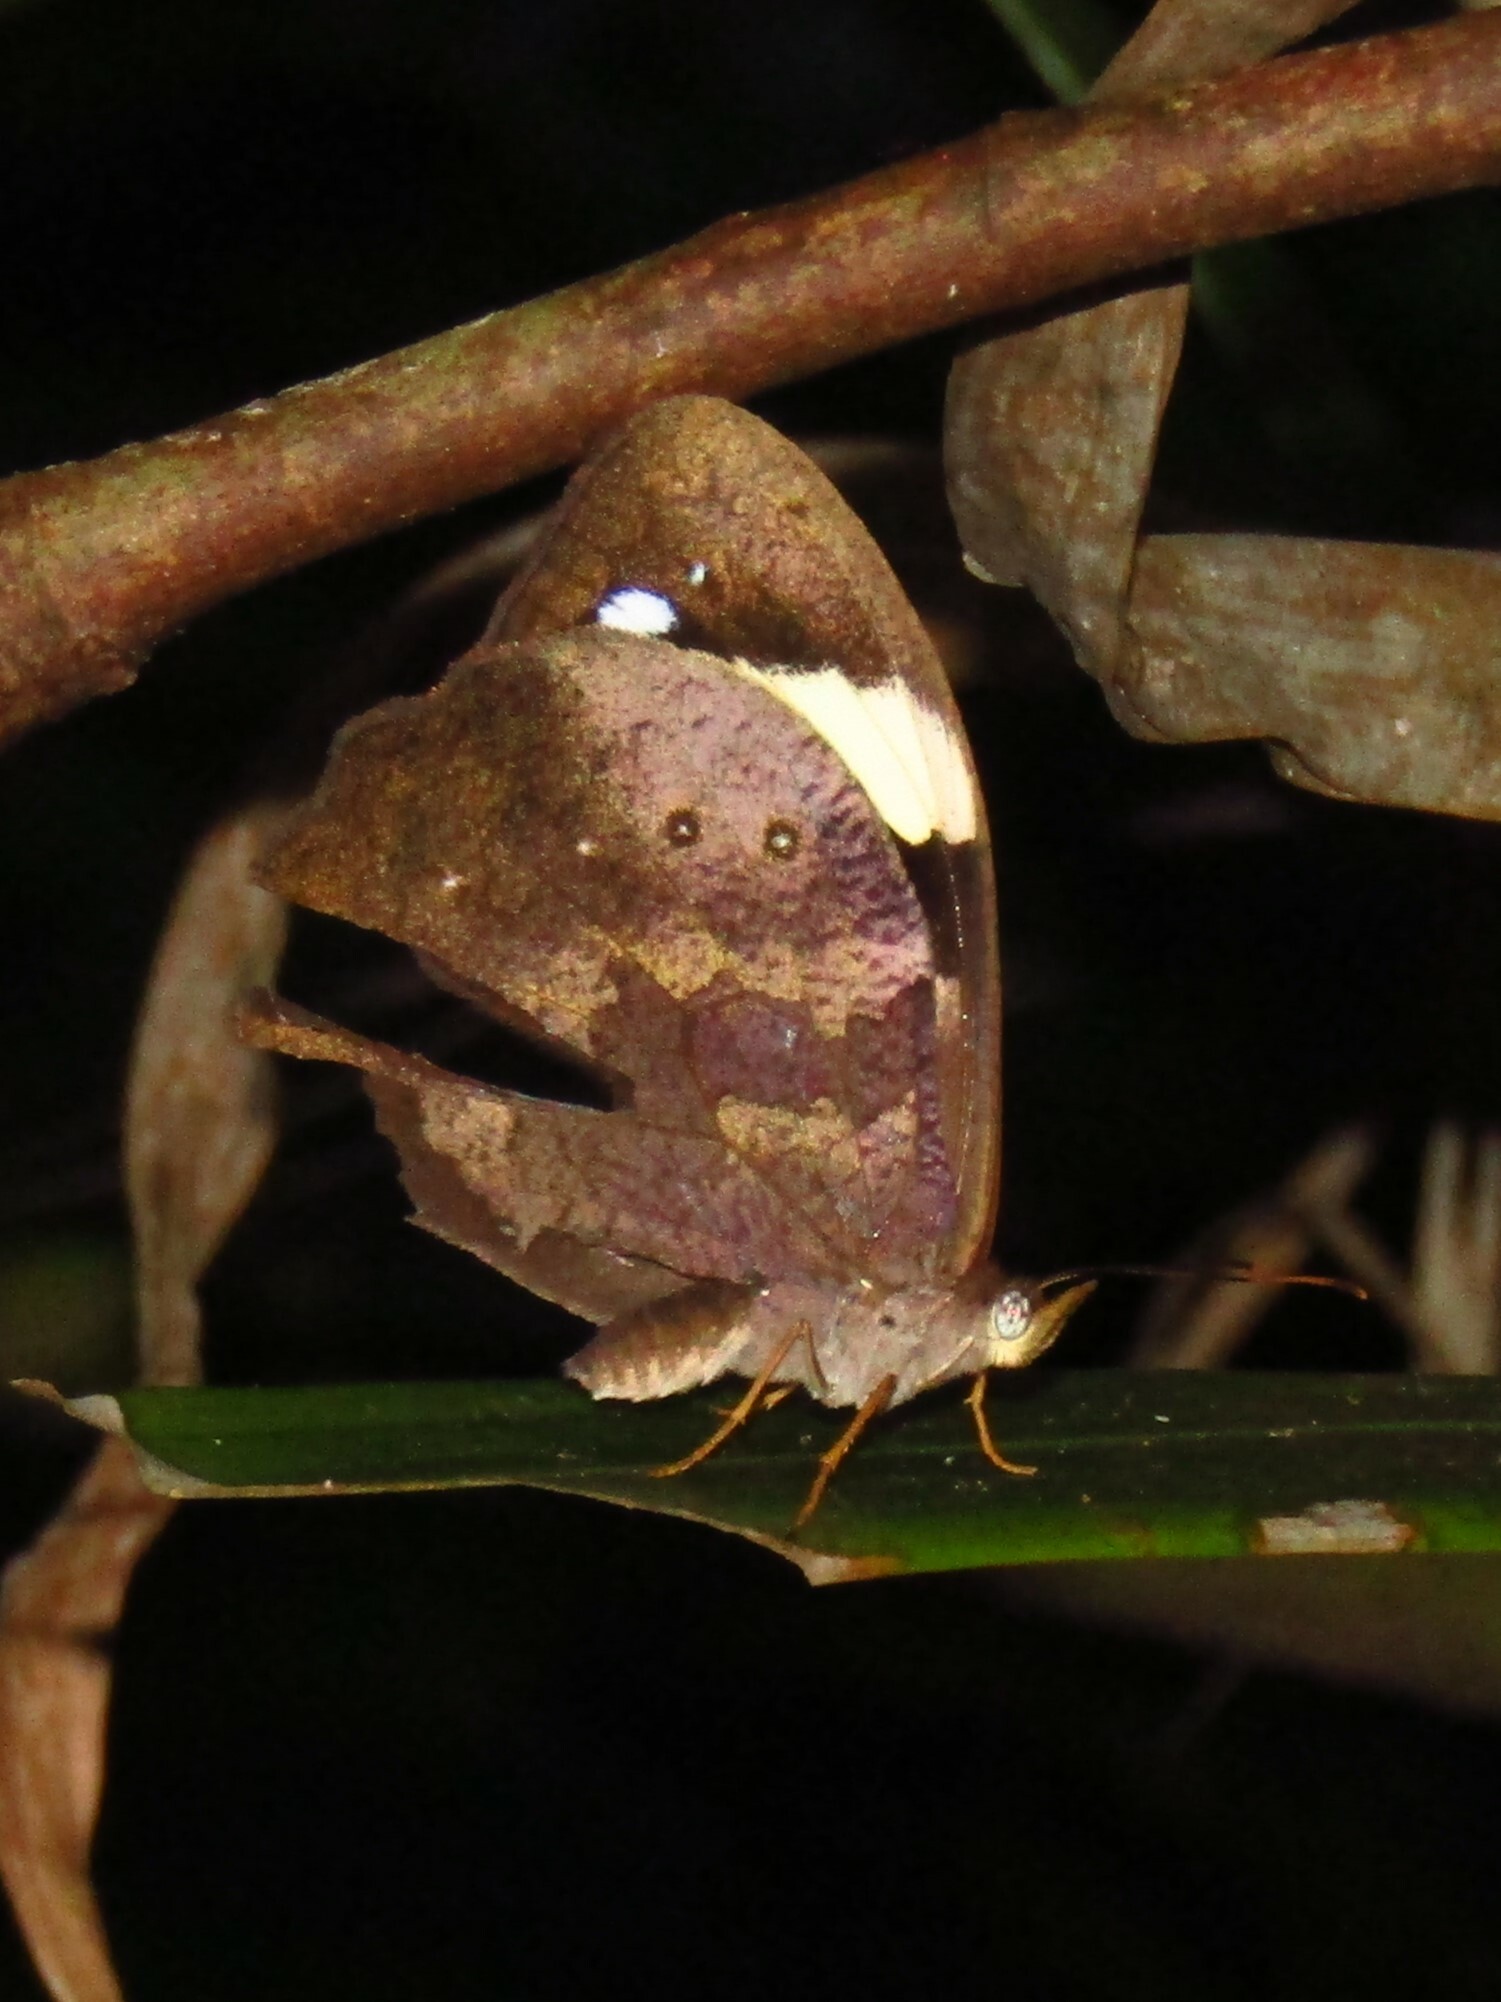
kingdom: Animalia
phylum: Arthropoda
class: Insecta
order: Lepidoptera
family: Nymphalidae
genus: Heteronympha
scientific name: Heteronympha mirifica
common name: Wonder brown
